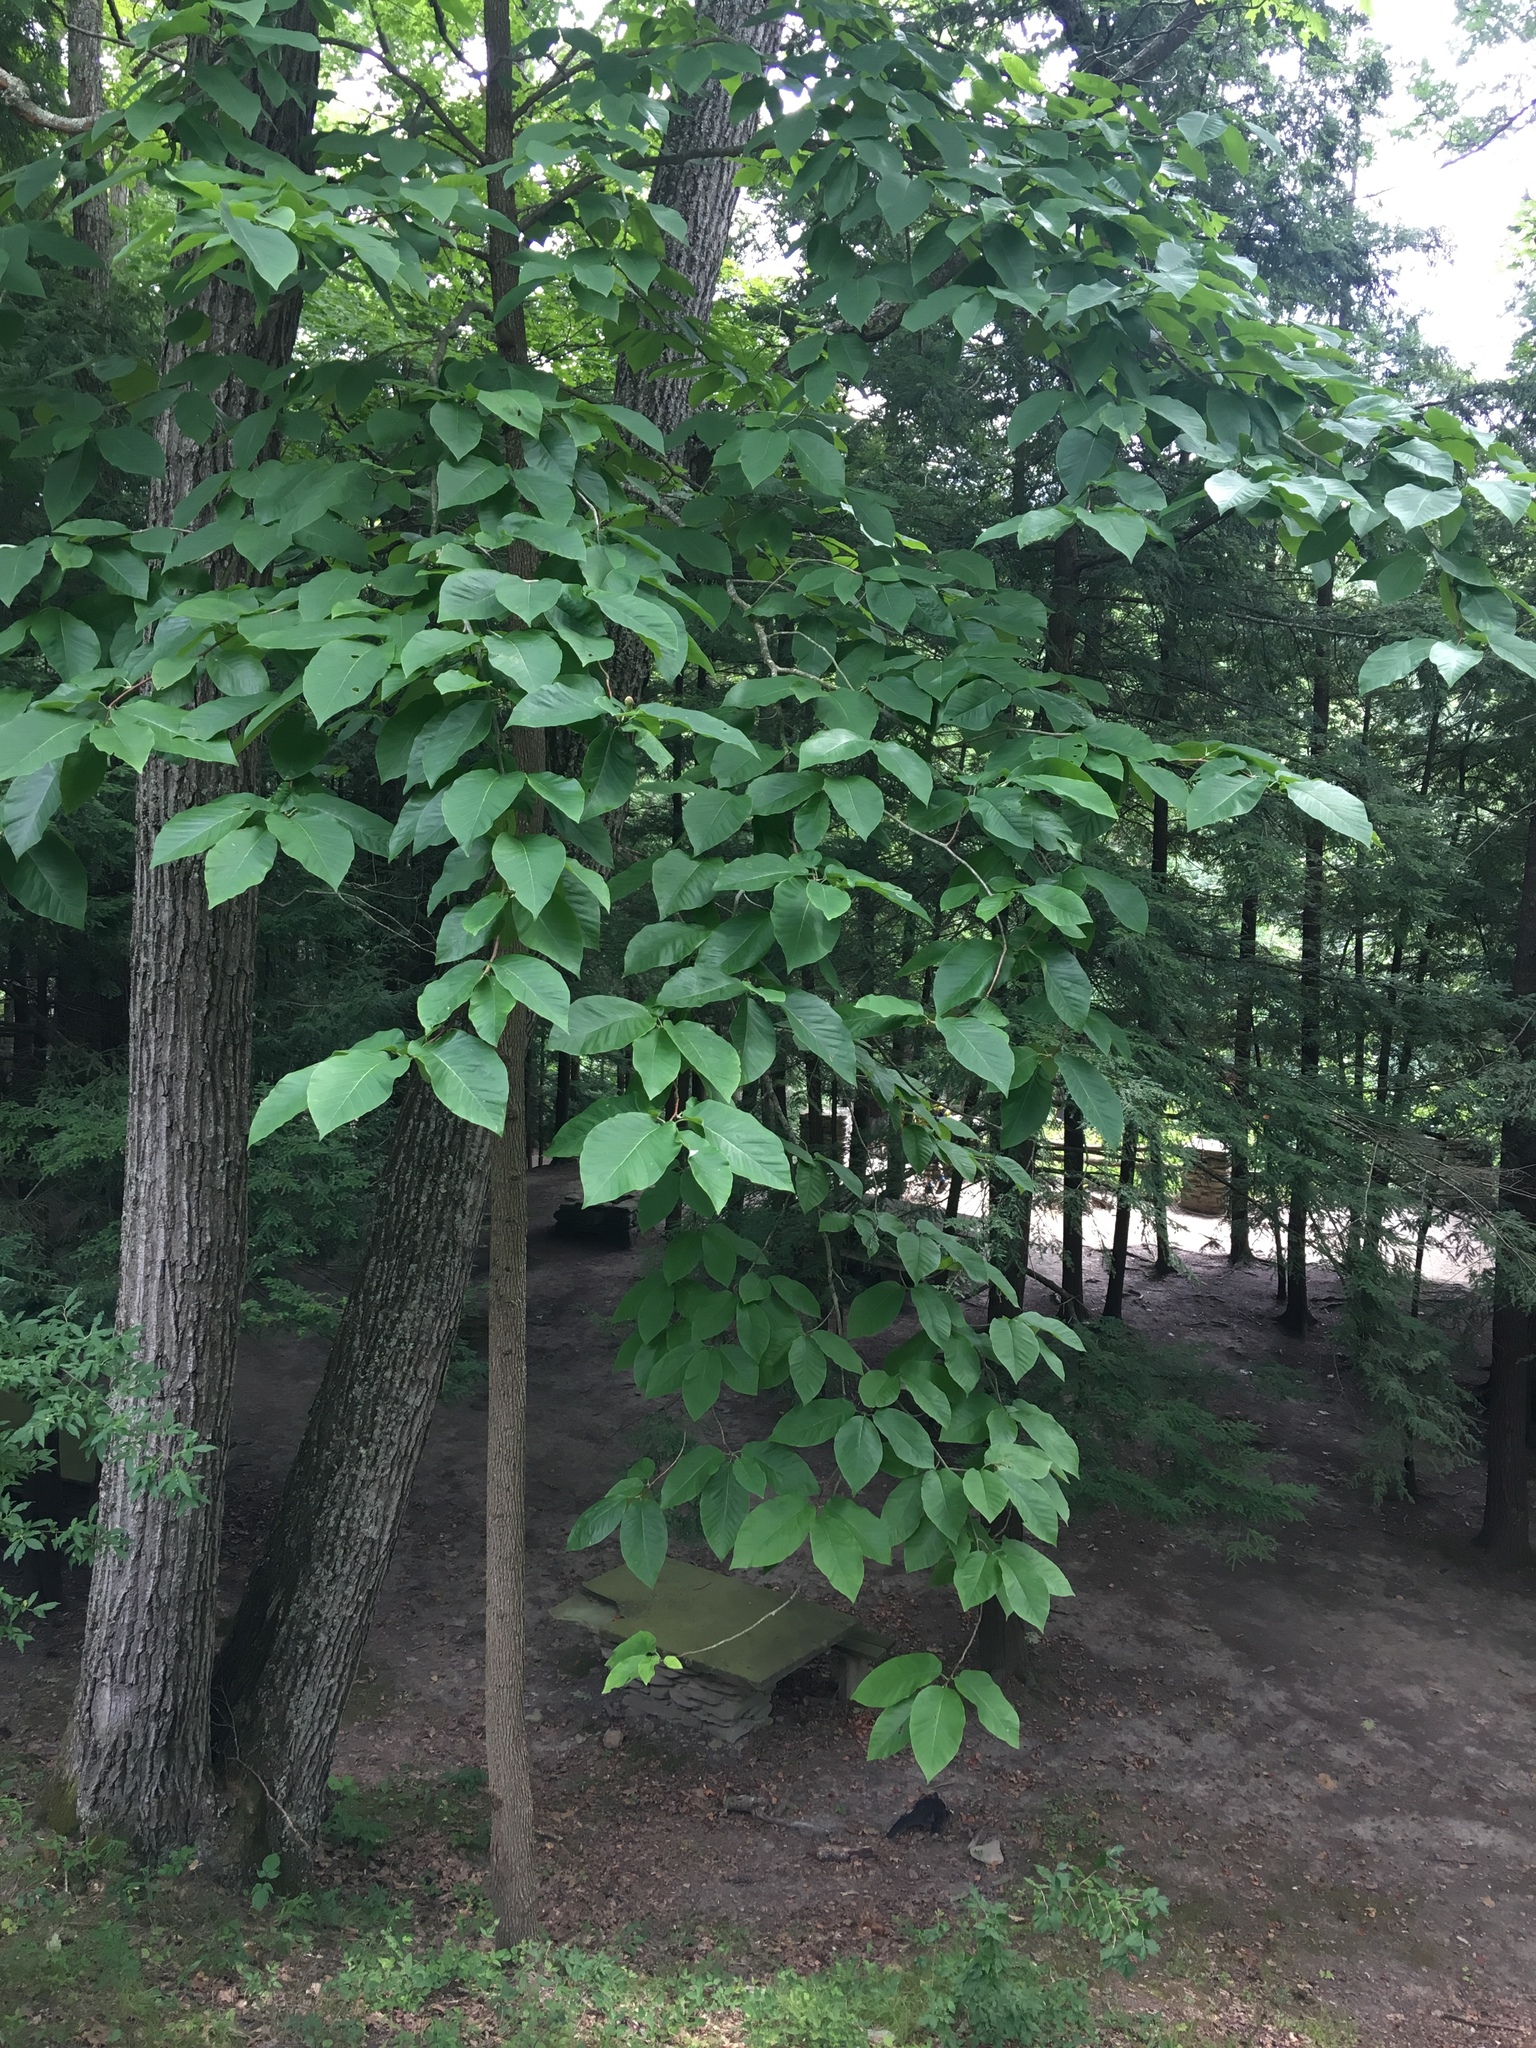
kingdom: Plantae
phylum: Tracheophyta
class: Magnoliopsida
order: Magnoliales
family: Magnoliaceae
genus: Magnolia
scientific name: Magnolia acuminata
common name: Cucumber magnolia
